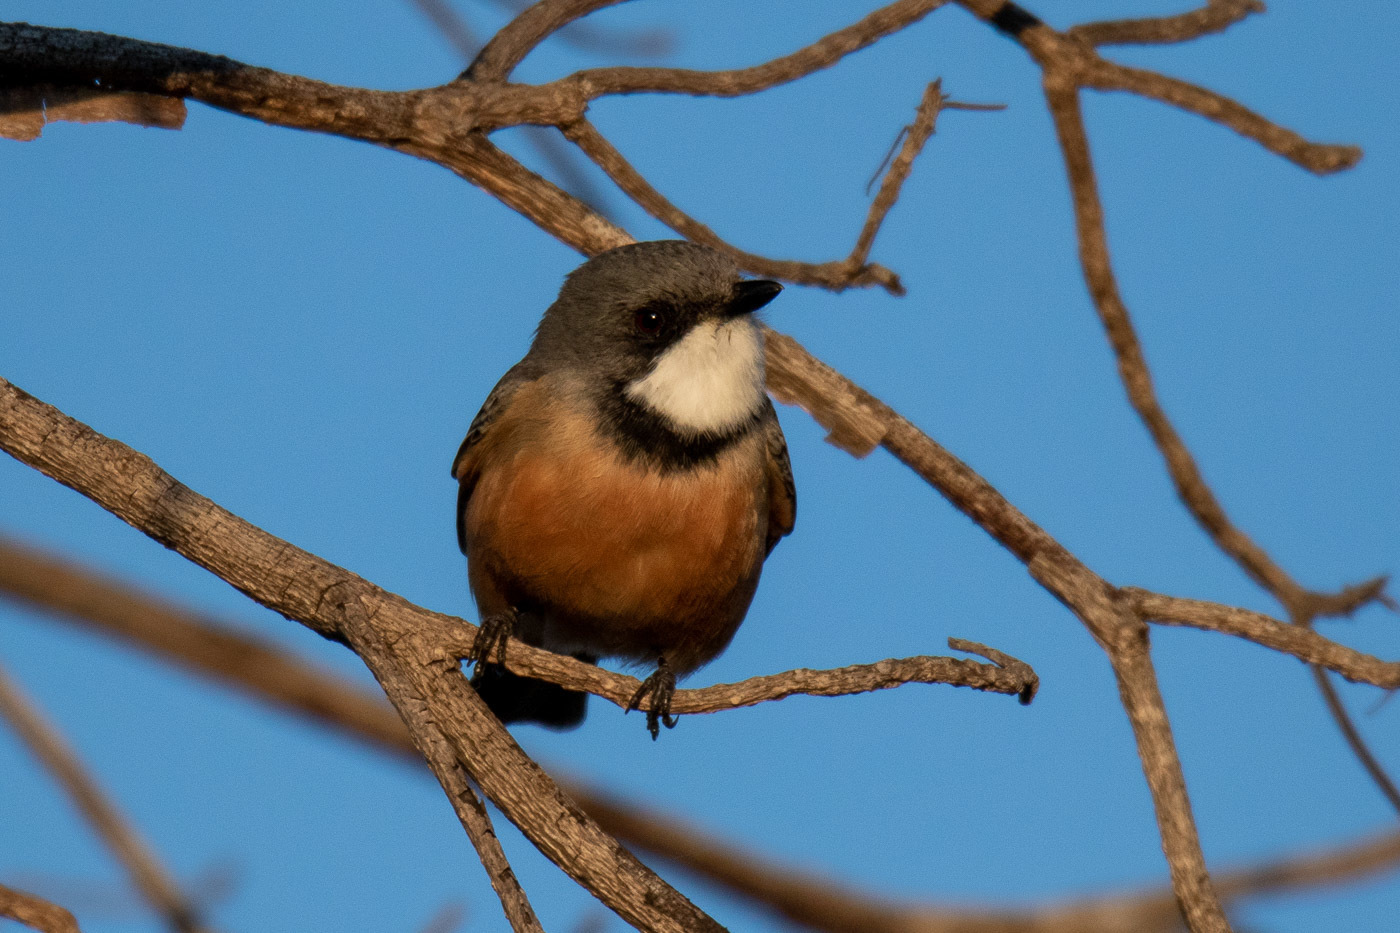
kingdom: Animalia
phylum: Chordata
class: Aves
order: Passeriformes
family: Pachycephalidae
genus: Pachycephala
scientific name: Pachycephala rufiventris
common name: Rufous whistler
